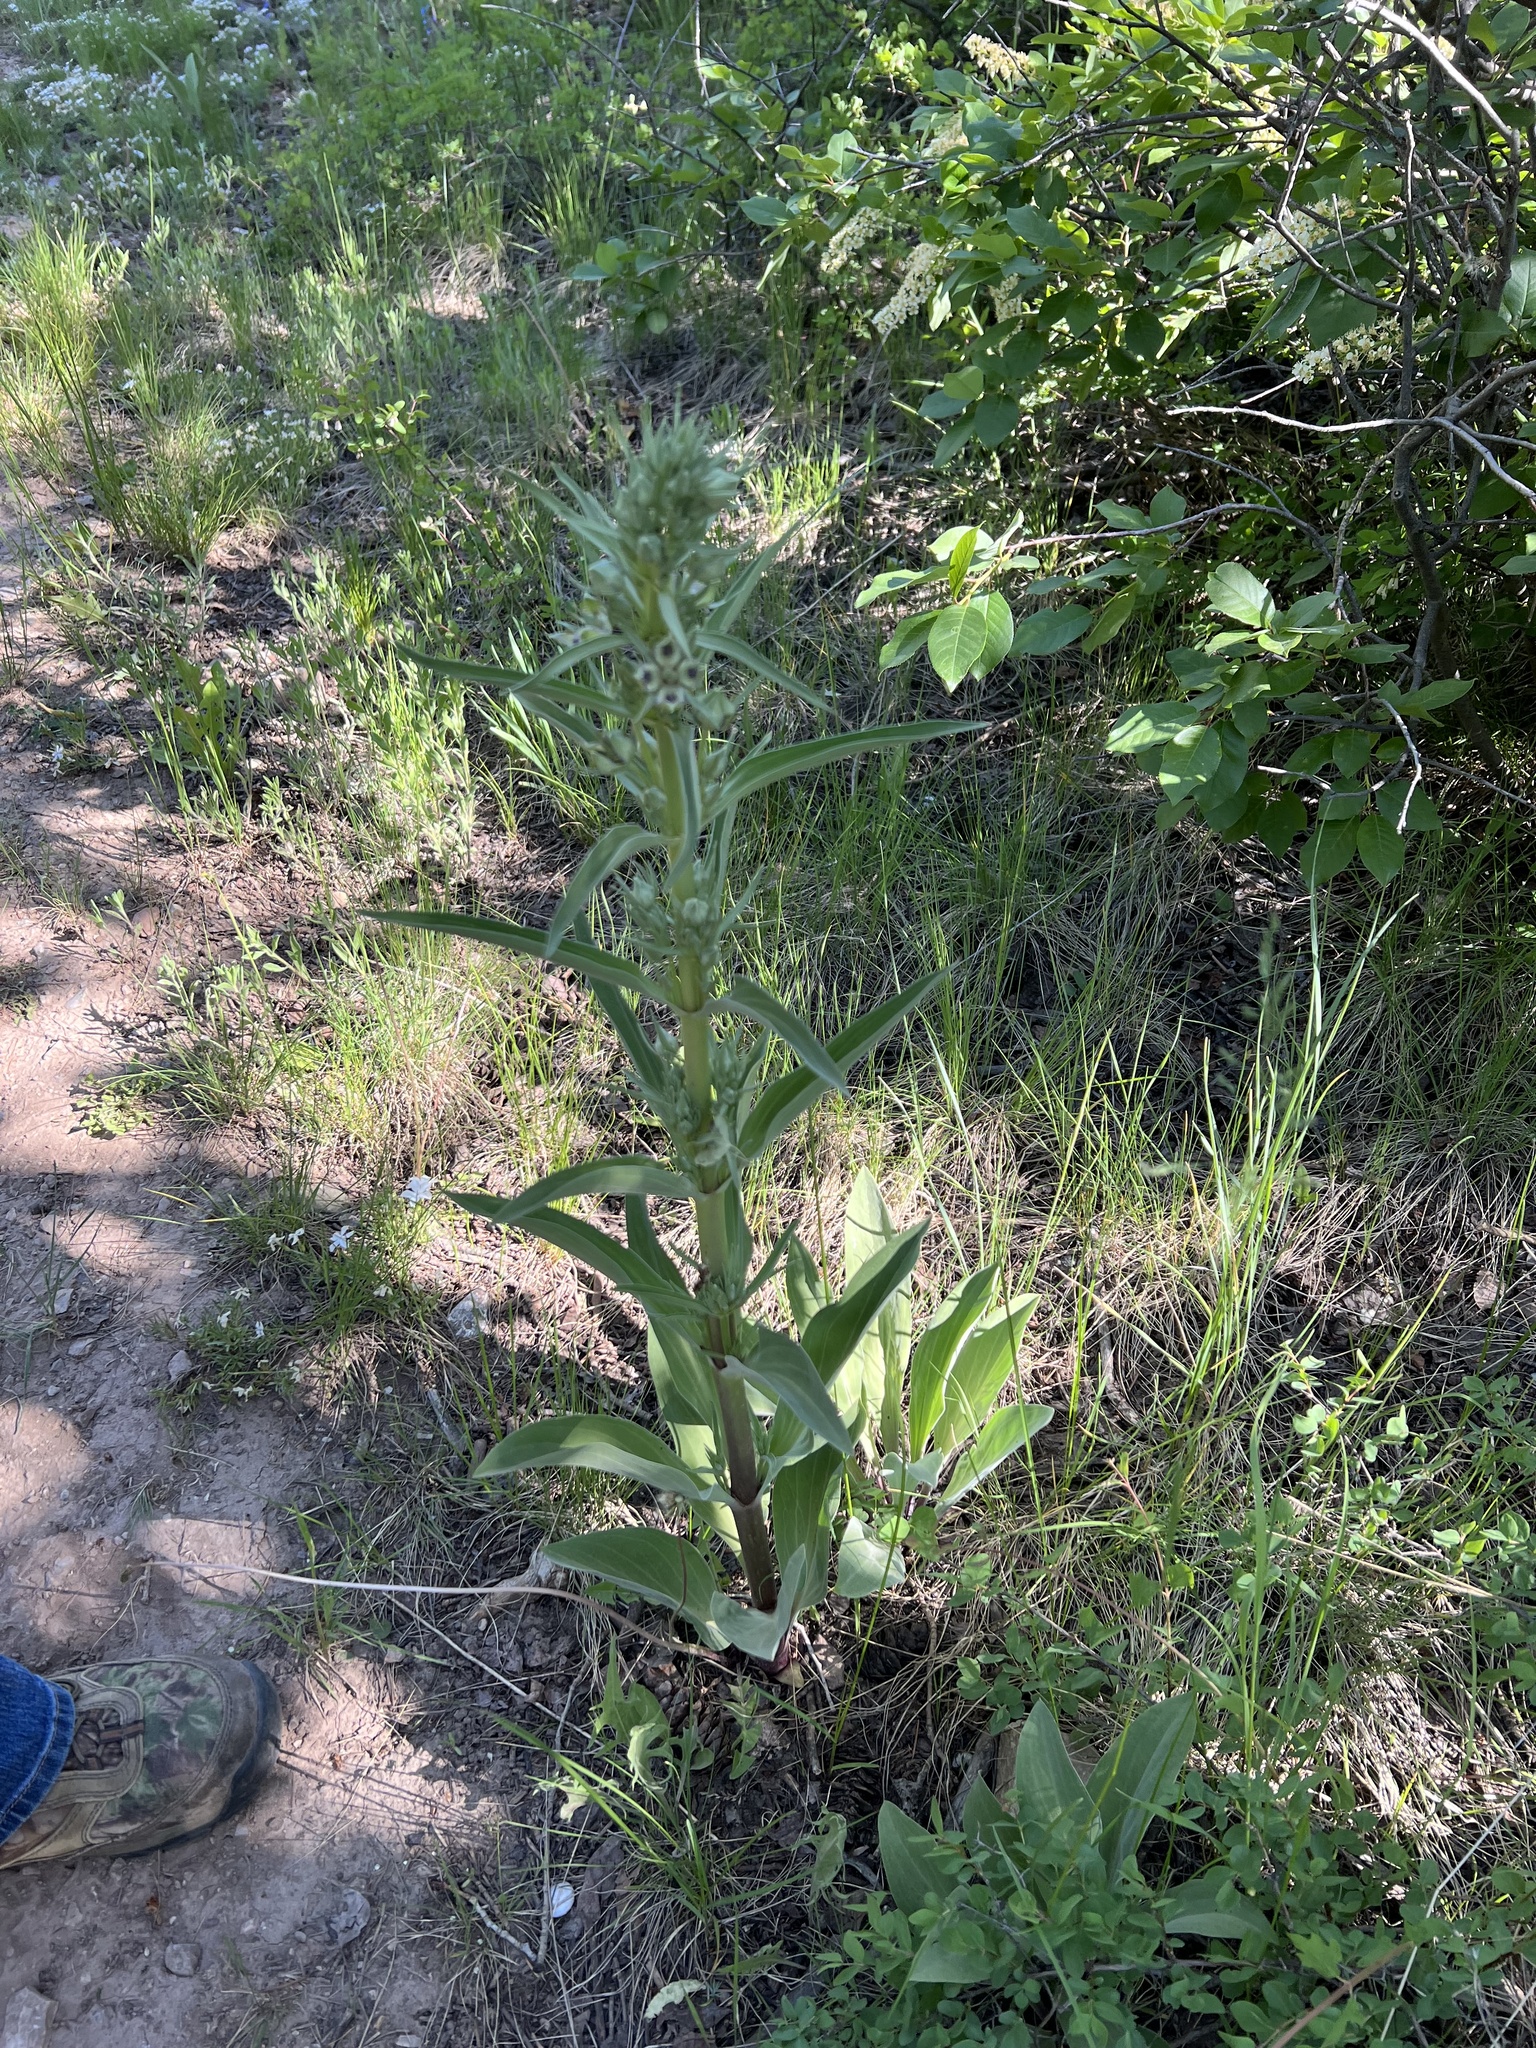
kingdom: Plantae
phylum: Tracheophyta
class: Magnoliopsida
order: Gentianales
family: Gentianaceae
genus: Frasera
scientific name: Frasera speciosa
